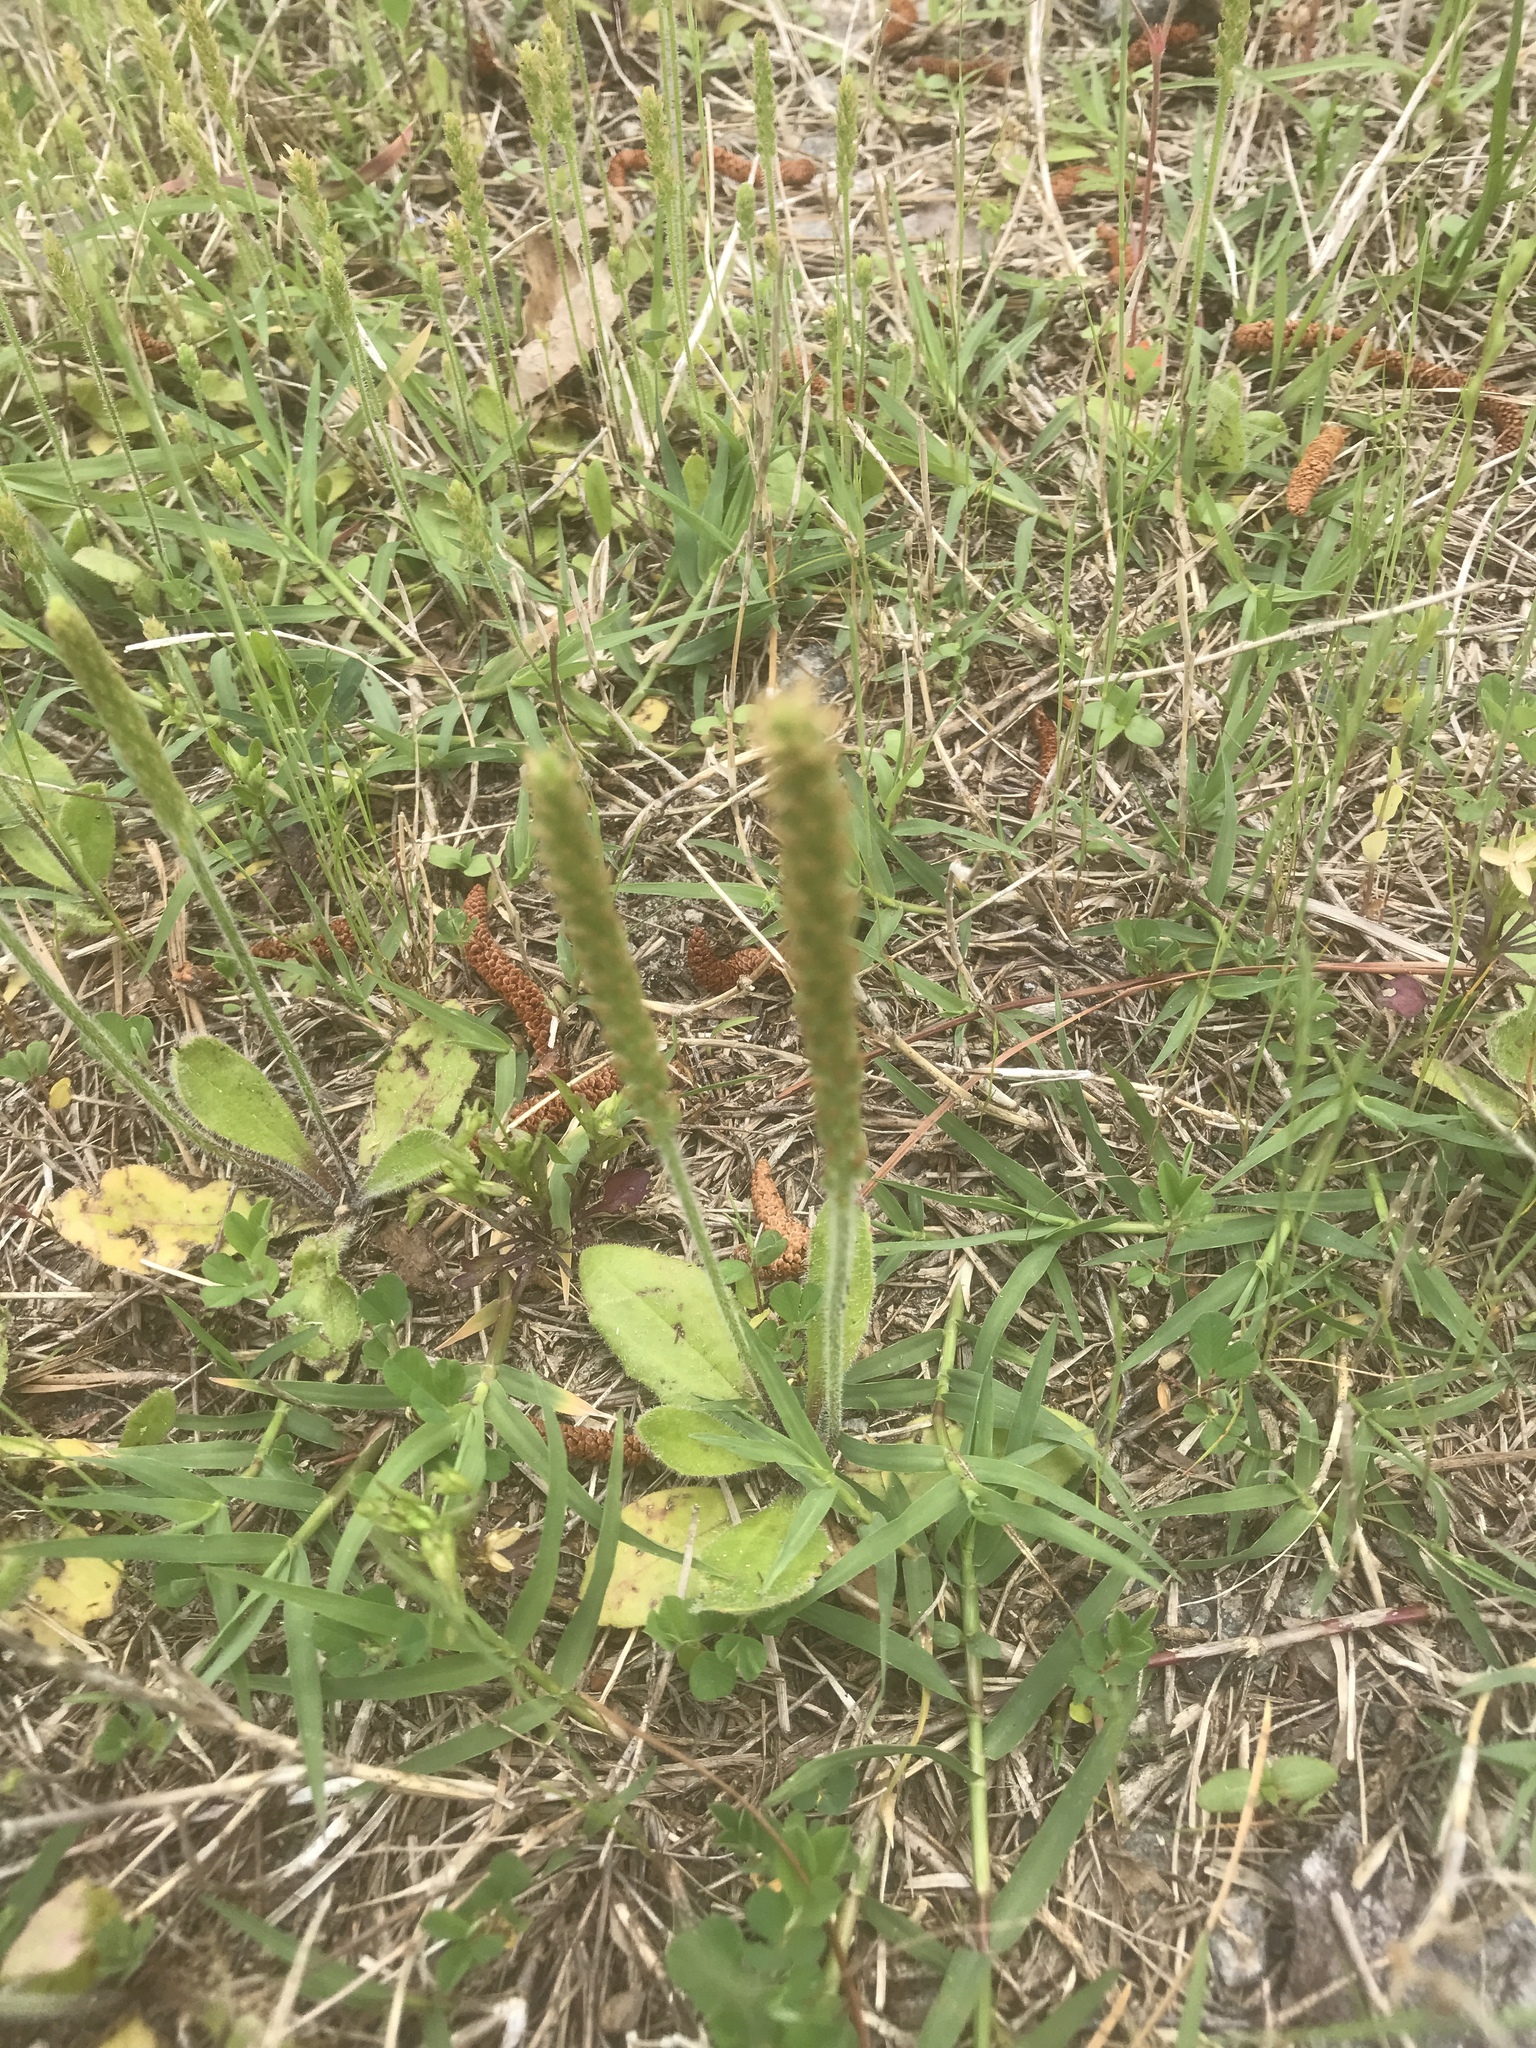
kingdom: Plantae
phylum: Tracheophyta
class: Magnoliopsida
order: Lamiales
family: Plantaginaceae
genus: Plantago
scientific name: Plantago virginica
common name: Hoary plantain
